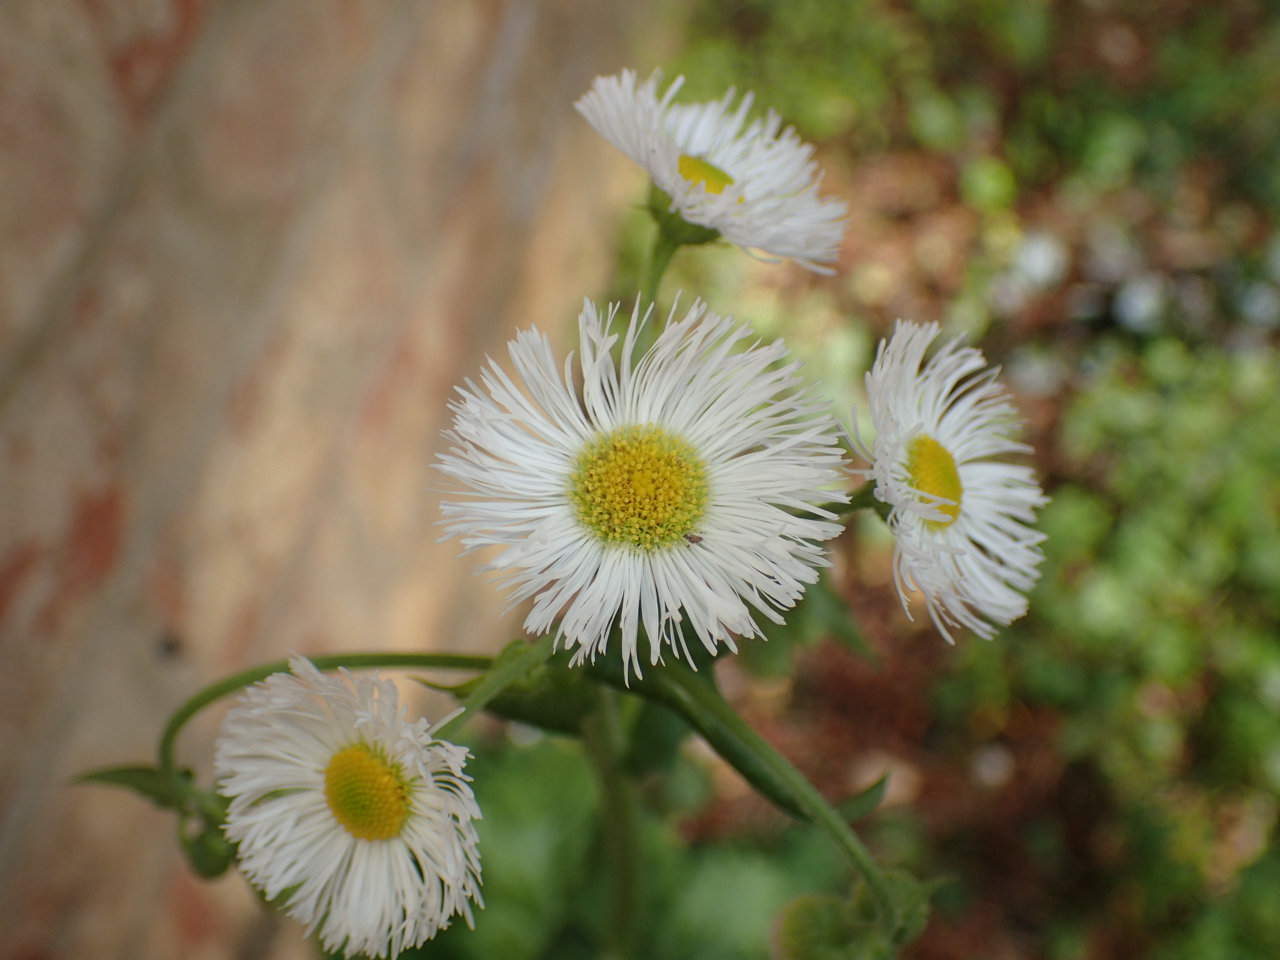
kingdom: Plantae
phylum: Tracheophyta
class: Magnoliopsida
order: Asterales
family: Asteraceae
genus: Erigeron
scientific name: Erigeron philadelphicus
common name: Robin's-plantain
